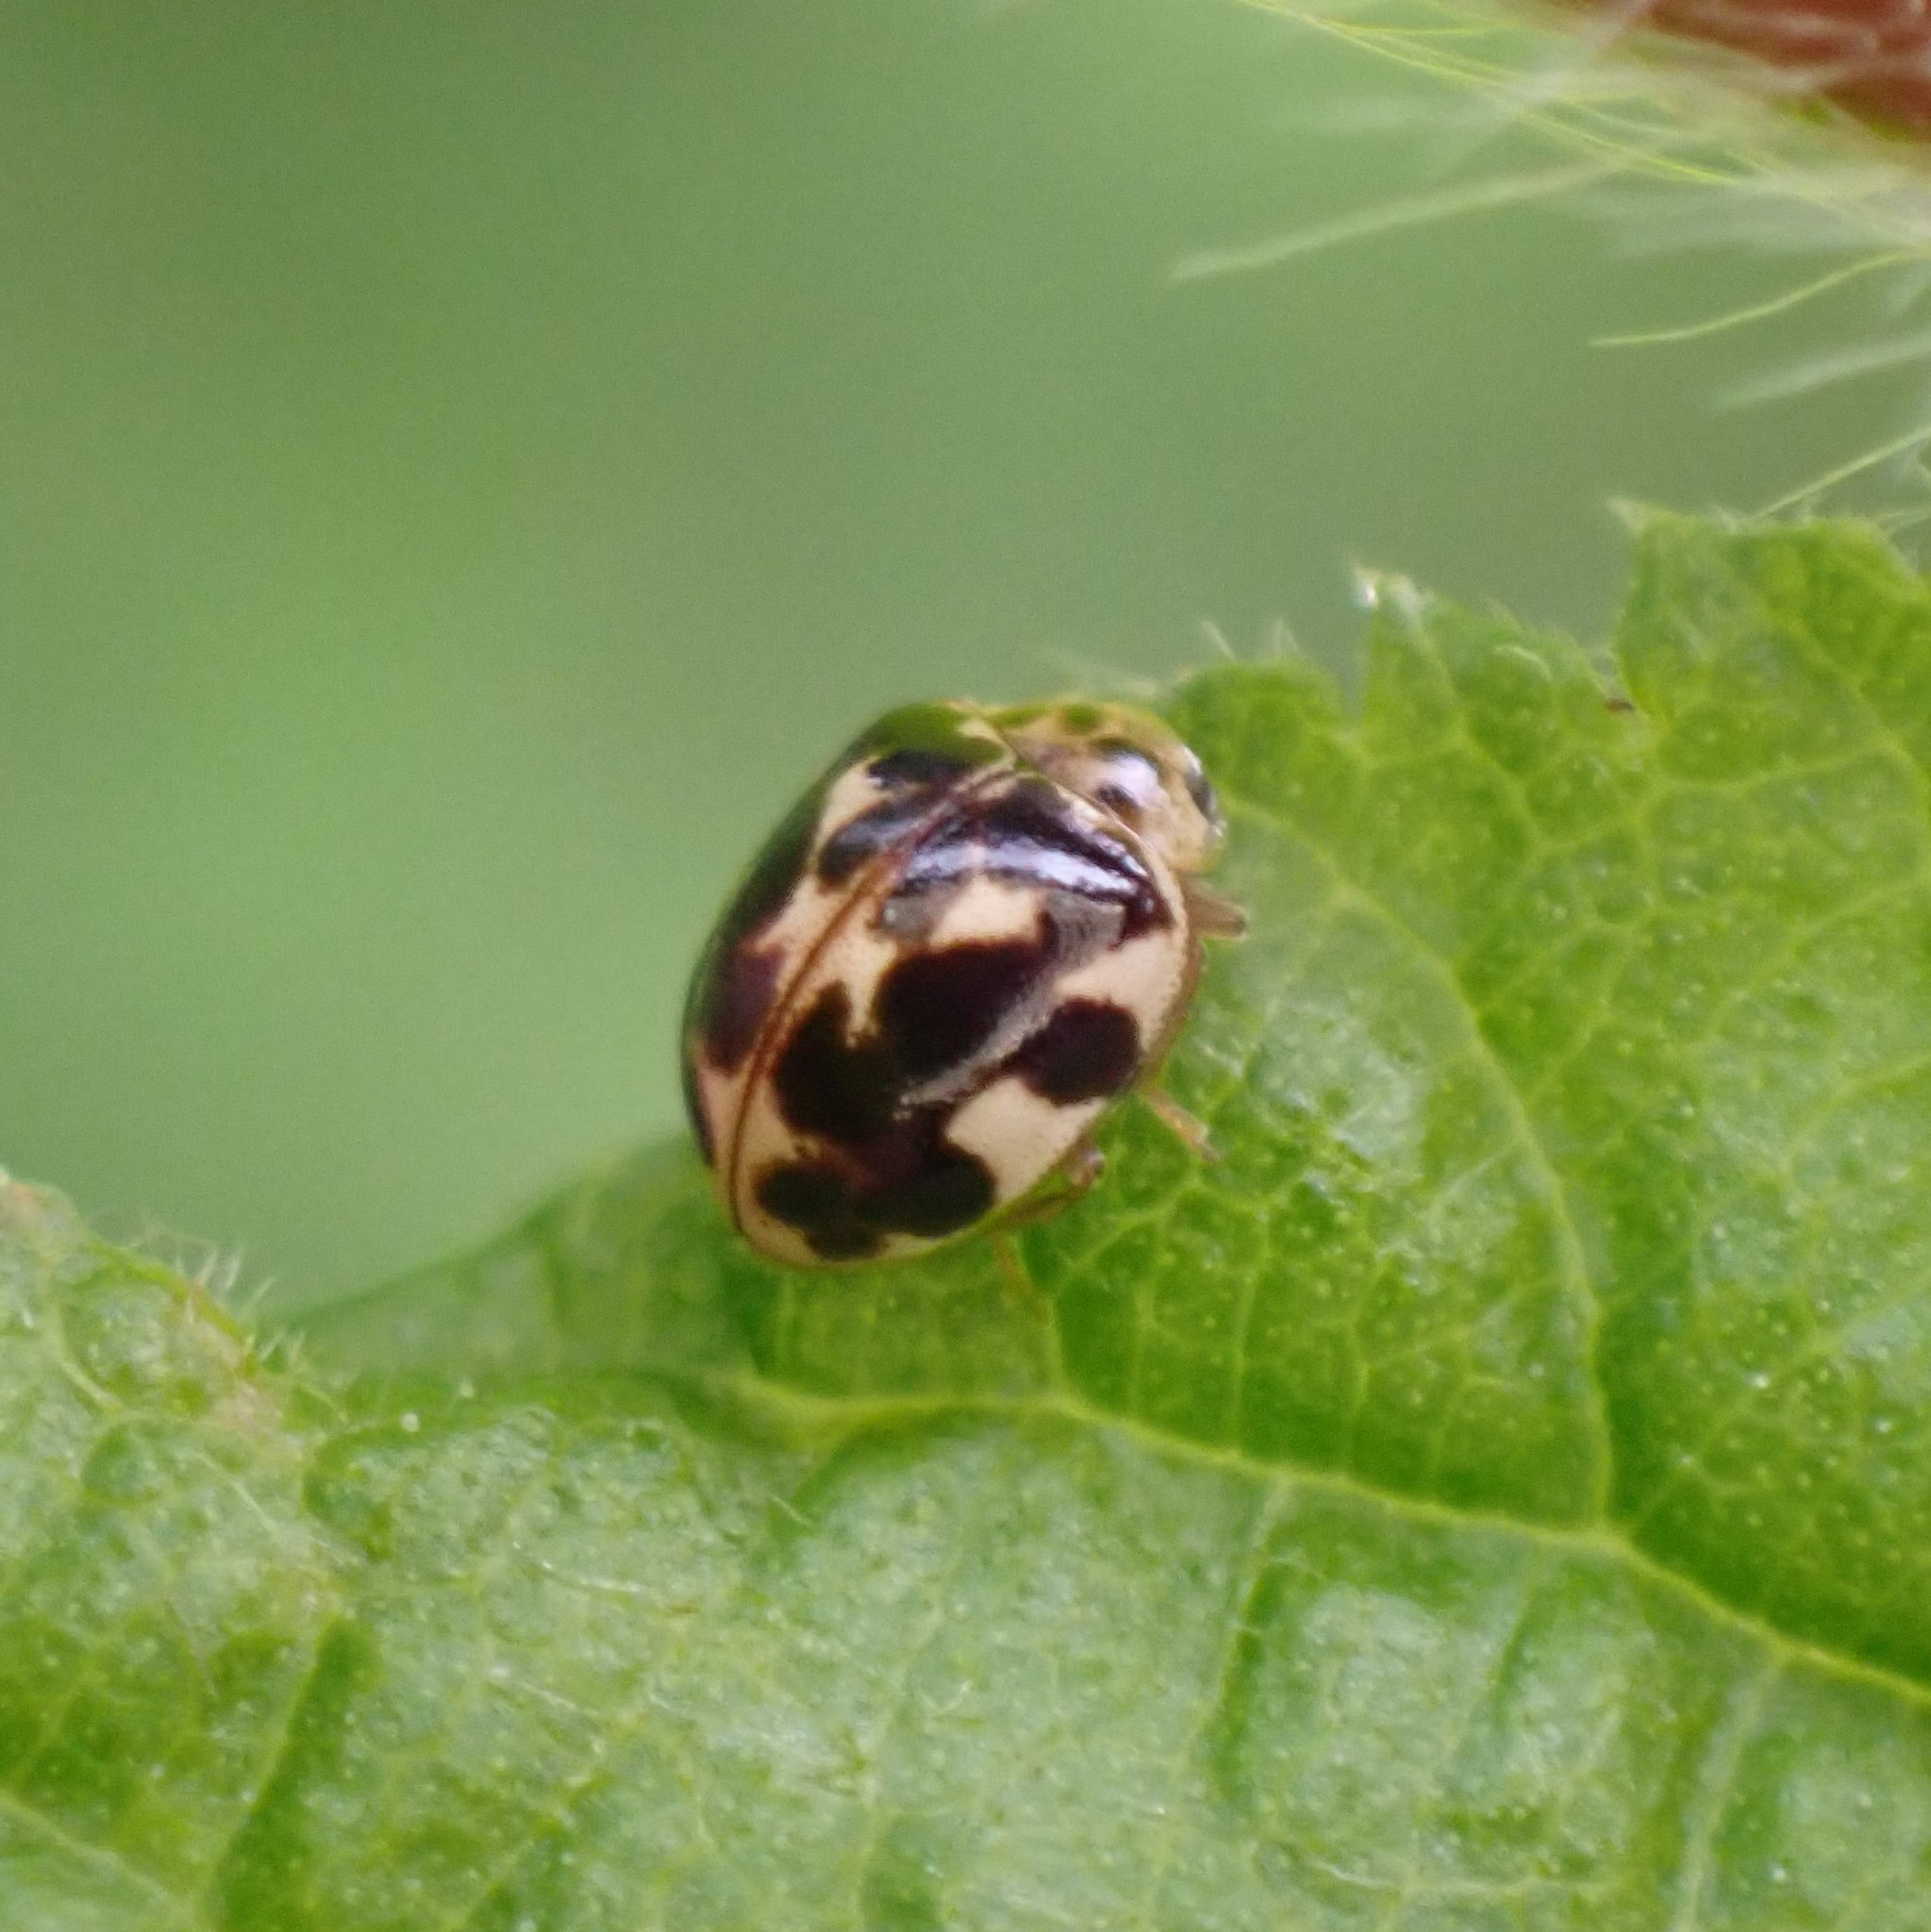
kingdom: Animalia
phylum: Arthropoda
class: Insecta
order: Coleoptera
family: Coccinellidae
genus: Psyllobora
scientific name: Psyllobora vigintimaculata
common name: Ladybird beetle
